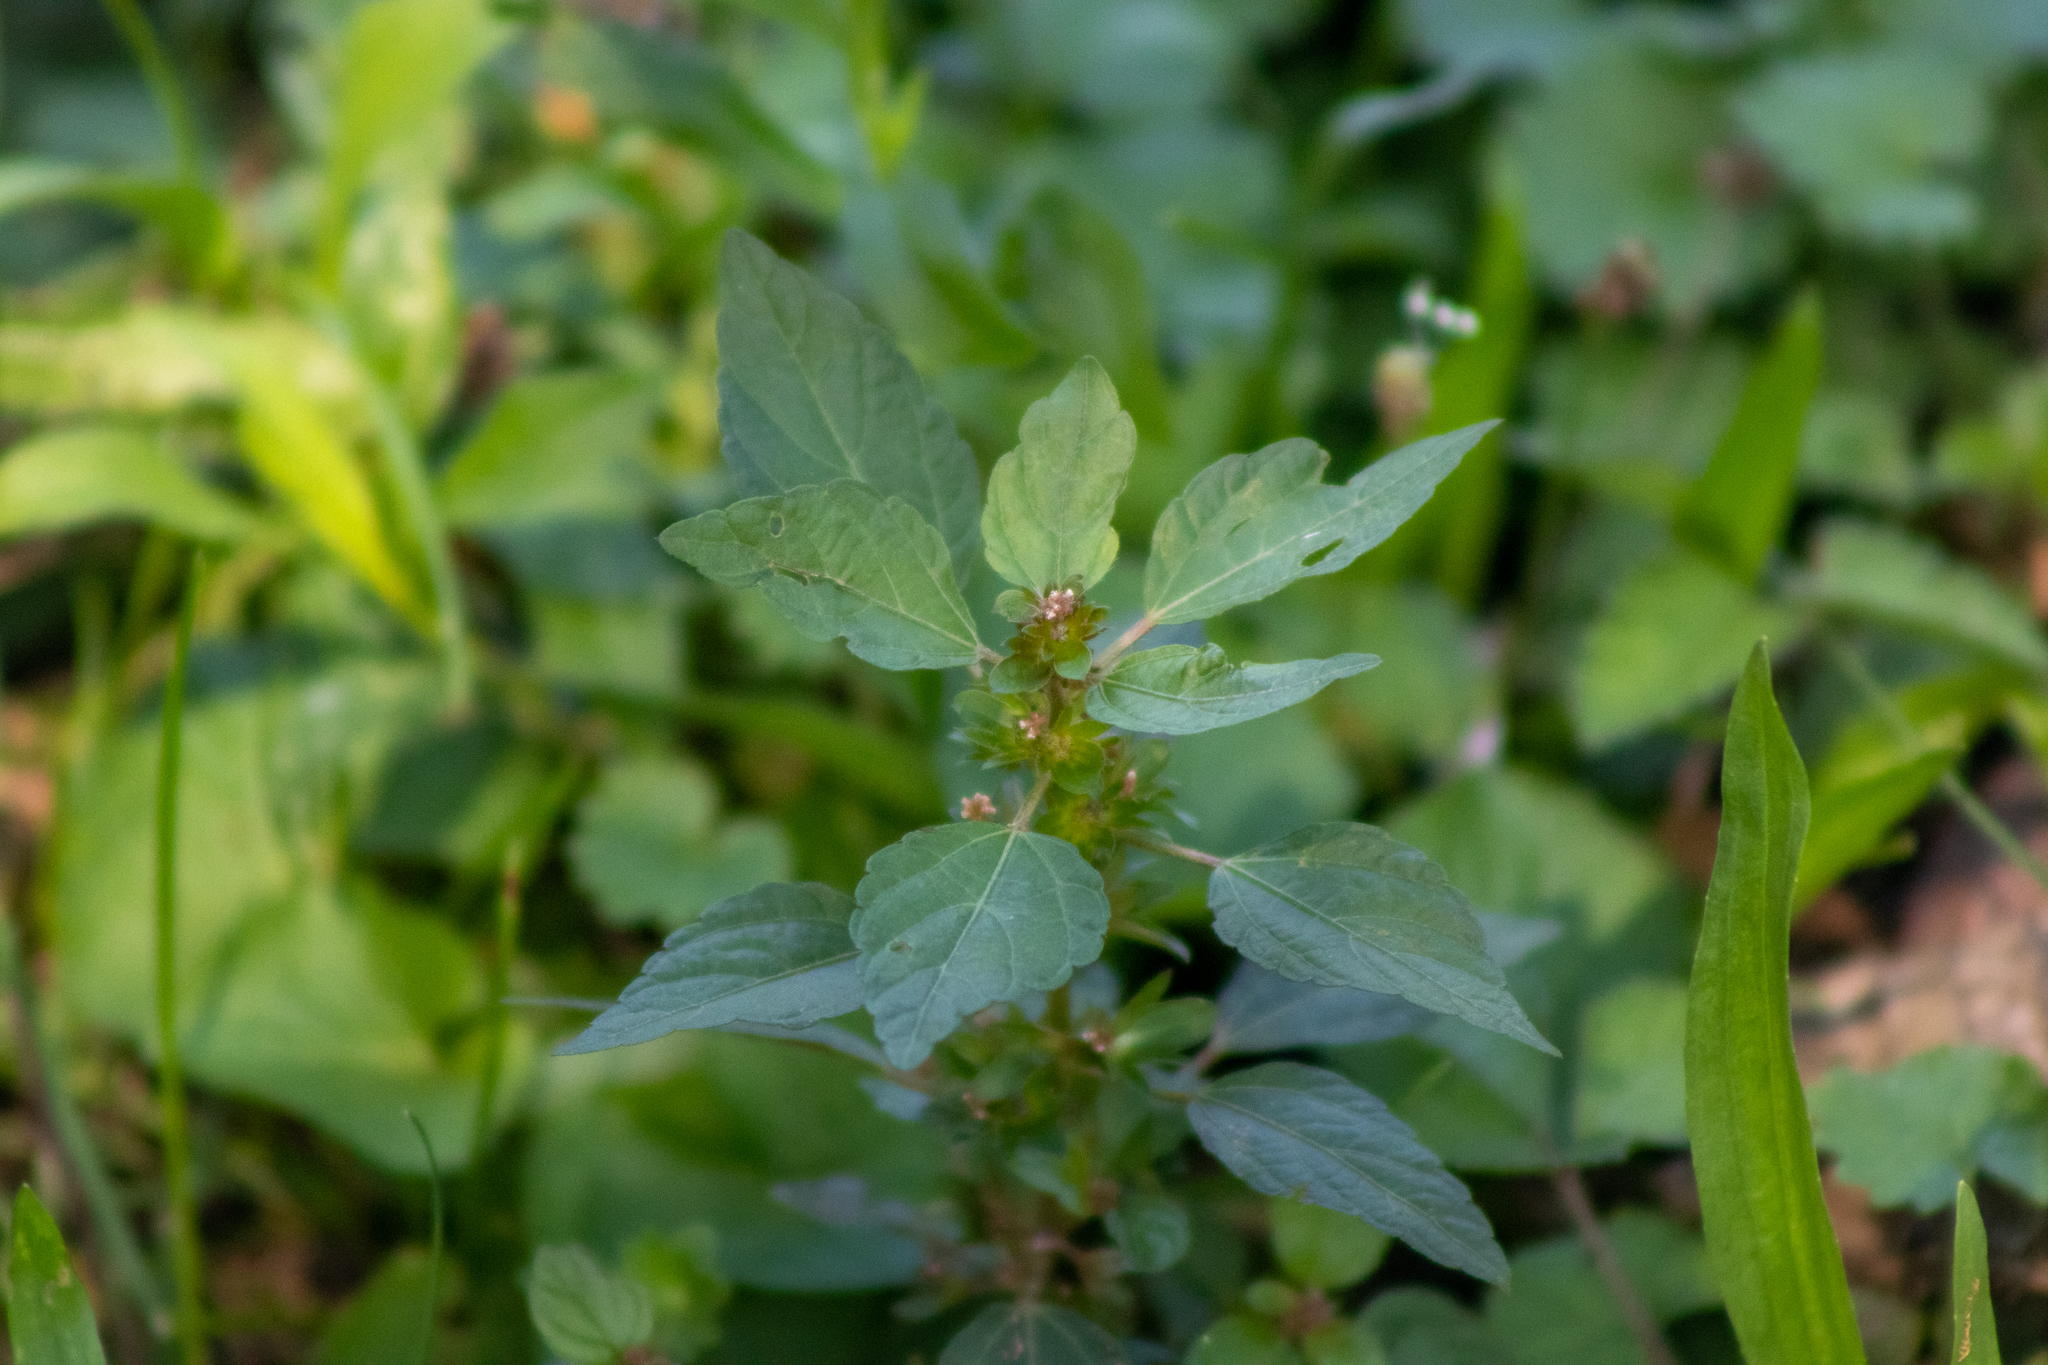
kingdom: Plantae
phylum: Tracheophyta
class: Magnoliopsida
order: Malpighiales
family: Euphorbiaceae
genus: Acalypha
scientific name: Acalypha rhomboidea
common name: Rhombic copperleaf
